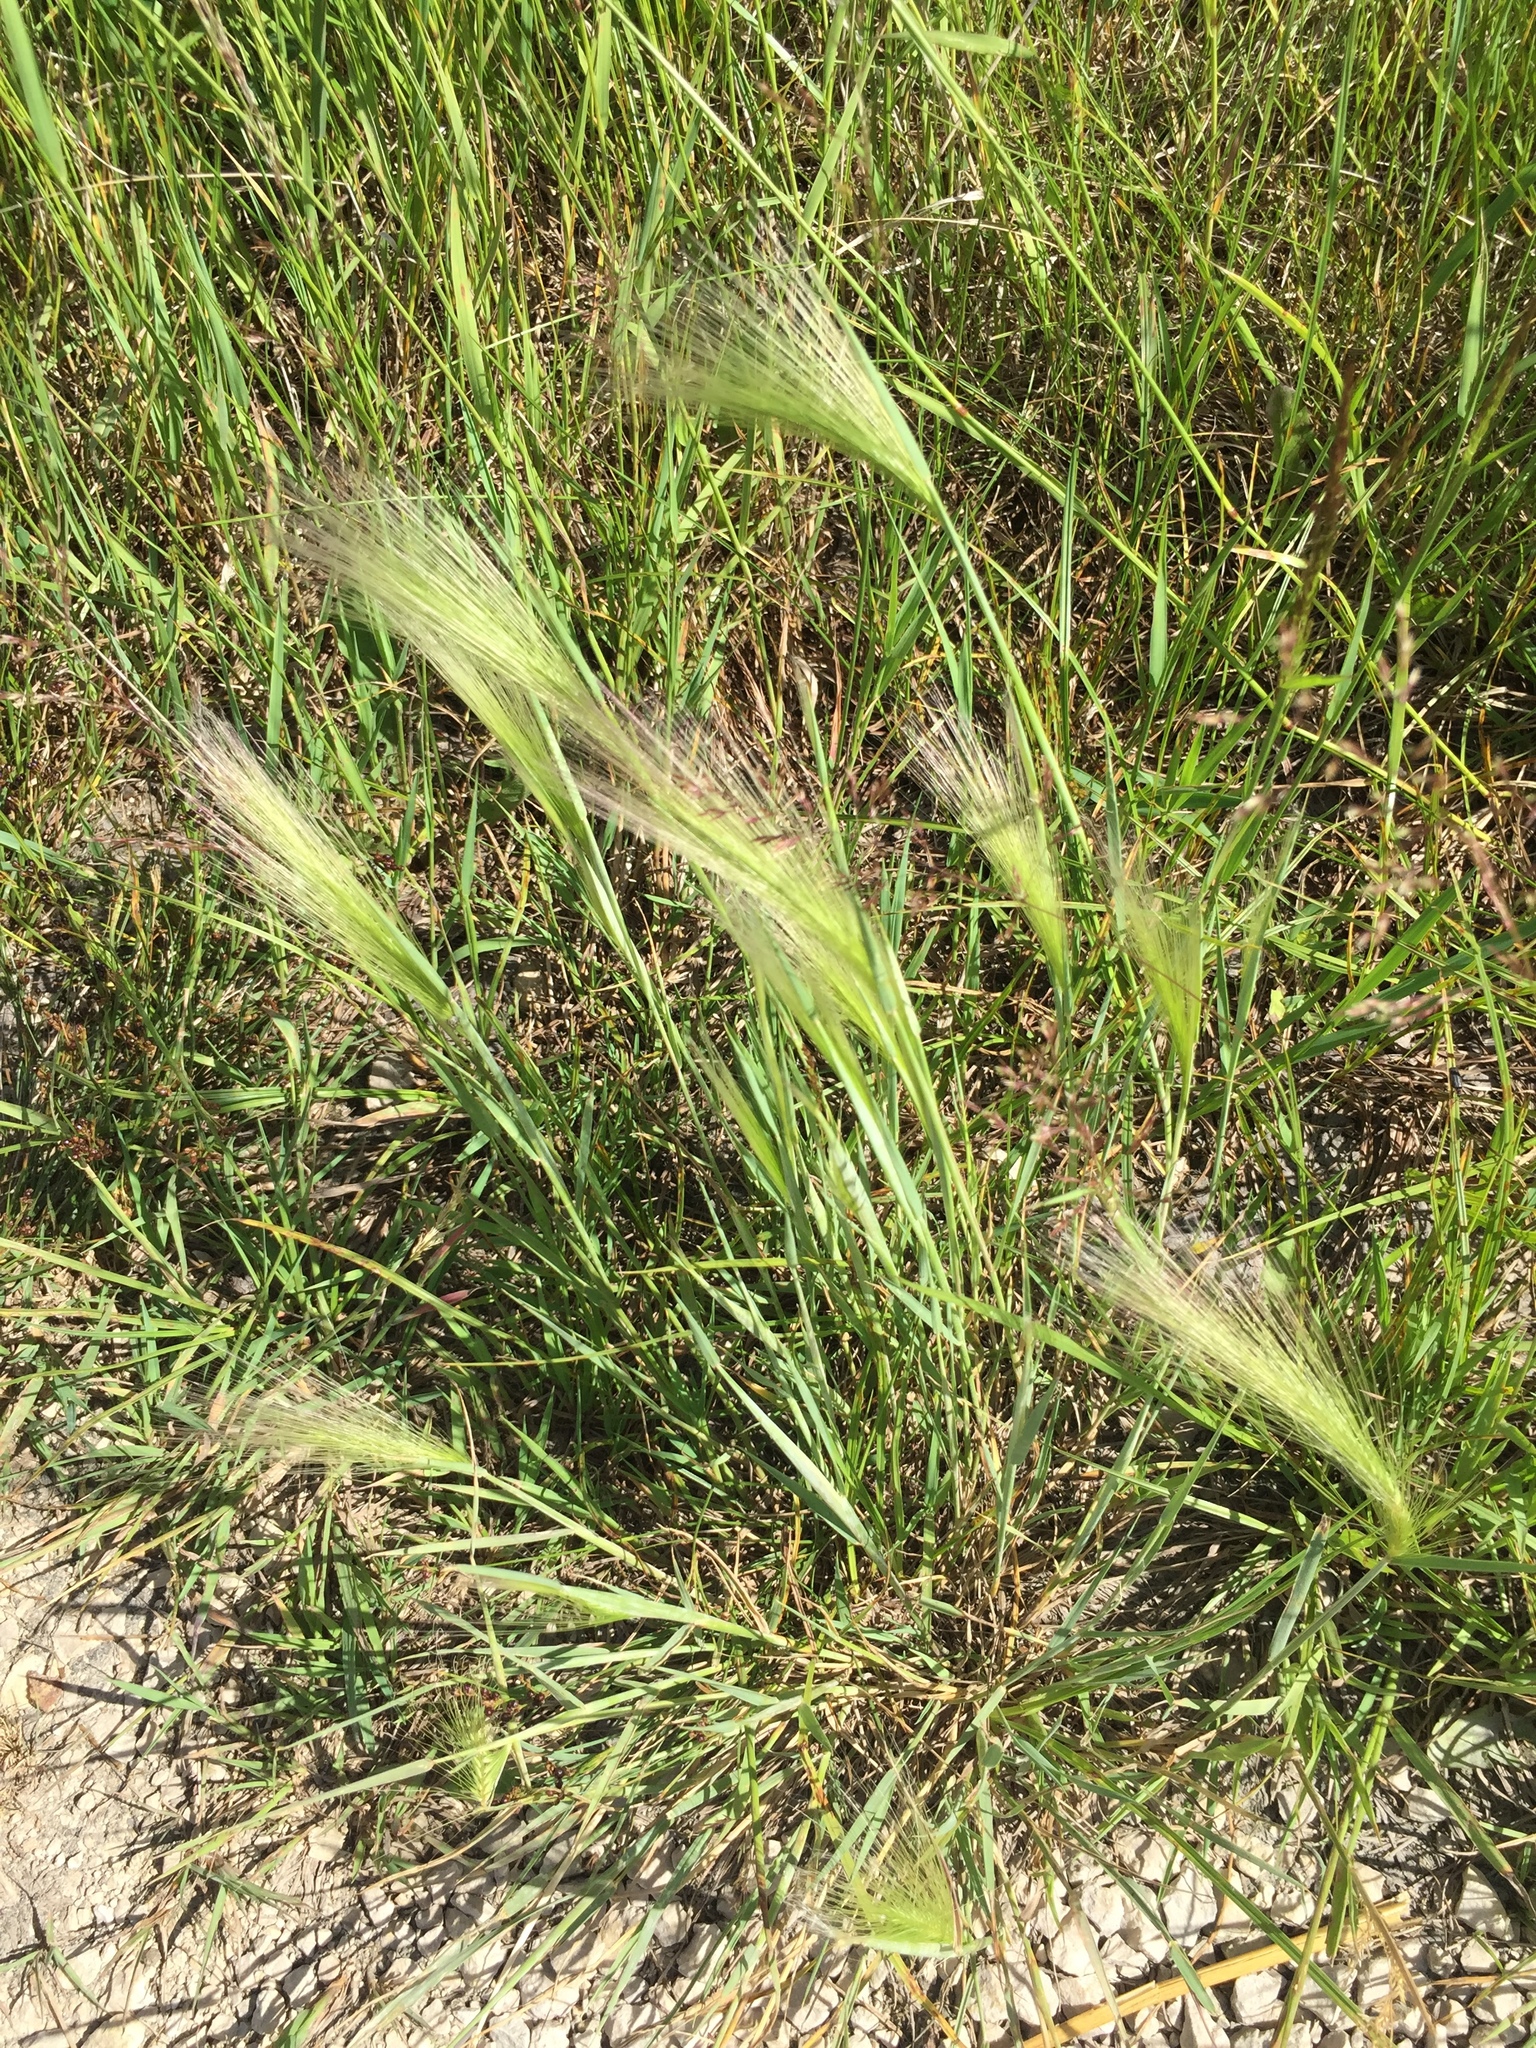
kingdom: Plantae
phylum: Tracheophyta
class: Liliopsida
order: Poales
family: Poaceae
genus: Hordeum
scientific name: Hordeum jubatum
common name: Foxtail barley
